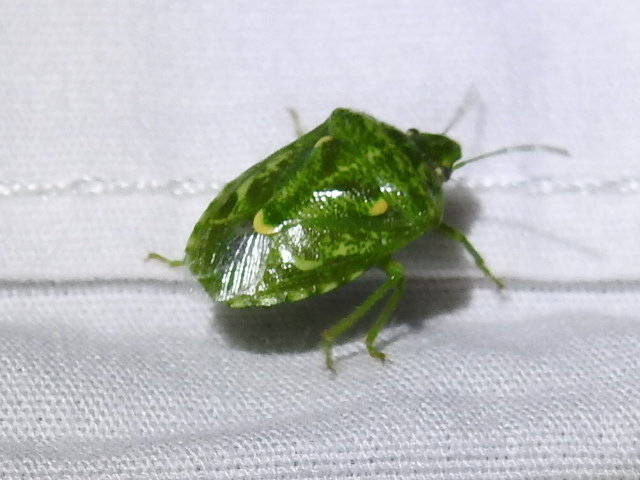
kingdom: Animalia
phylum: Arthropoda
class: Insecta
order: Hemiptera
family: Pentatomidae
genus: Banasa
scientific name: Banasa euchlora
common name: Cedar berry bug
